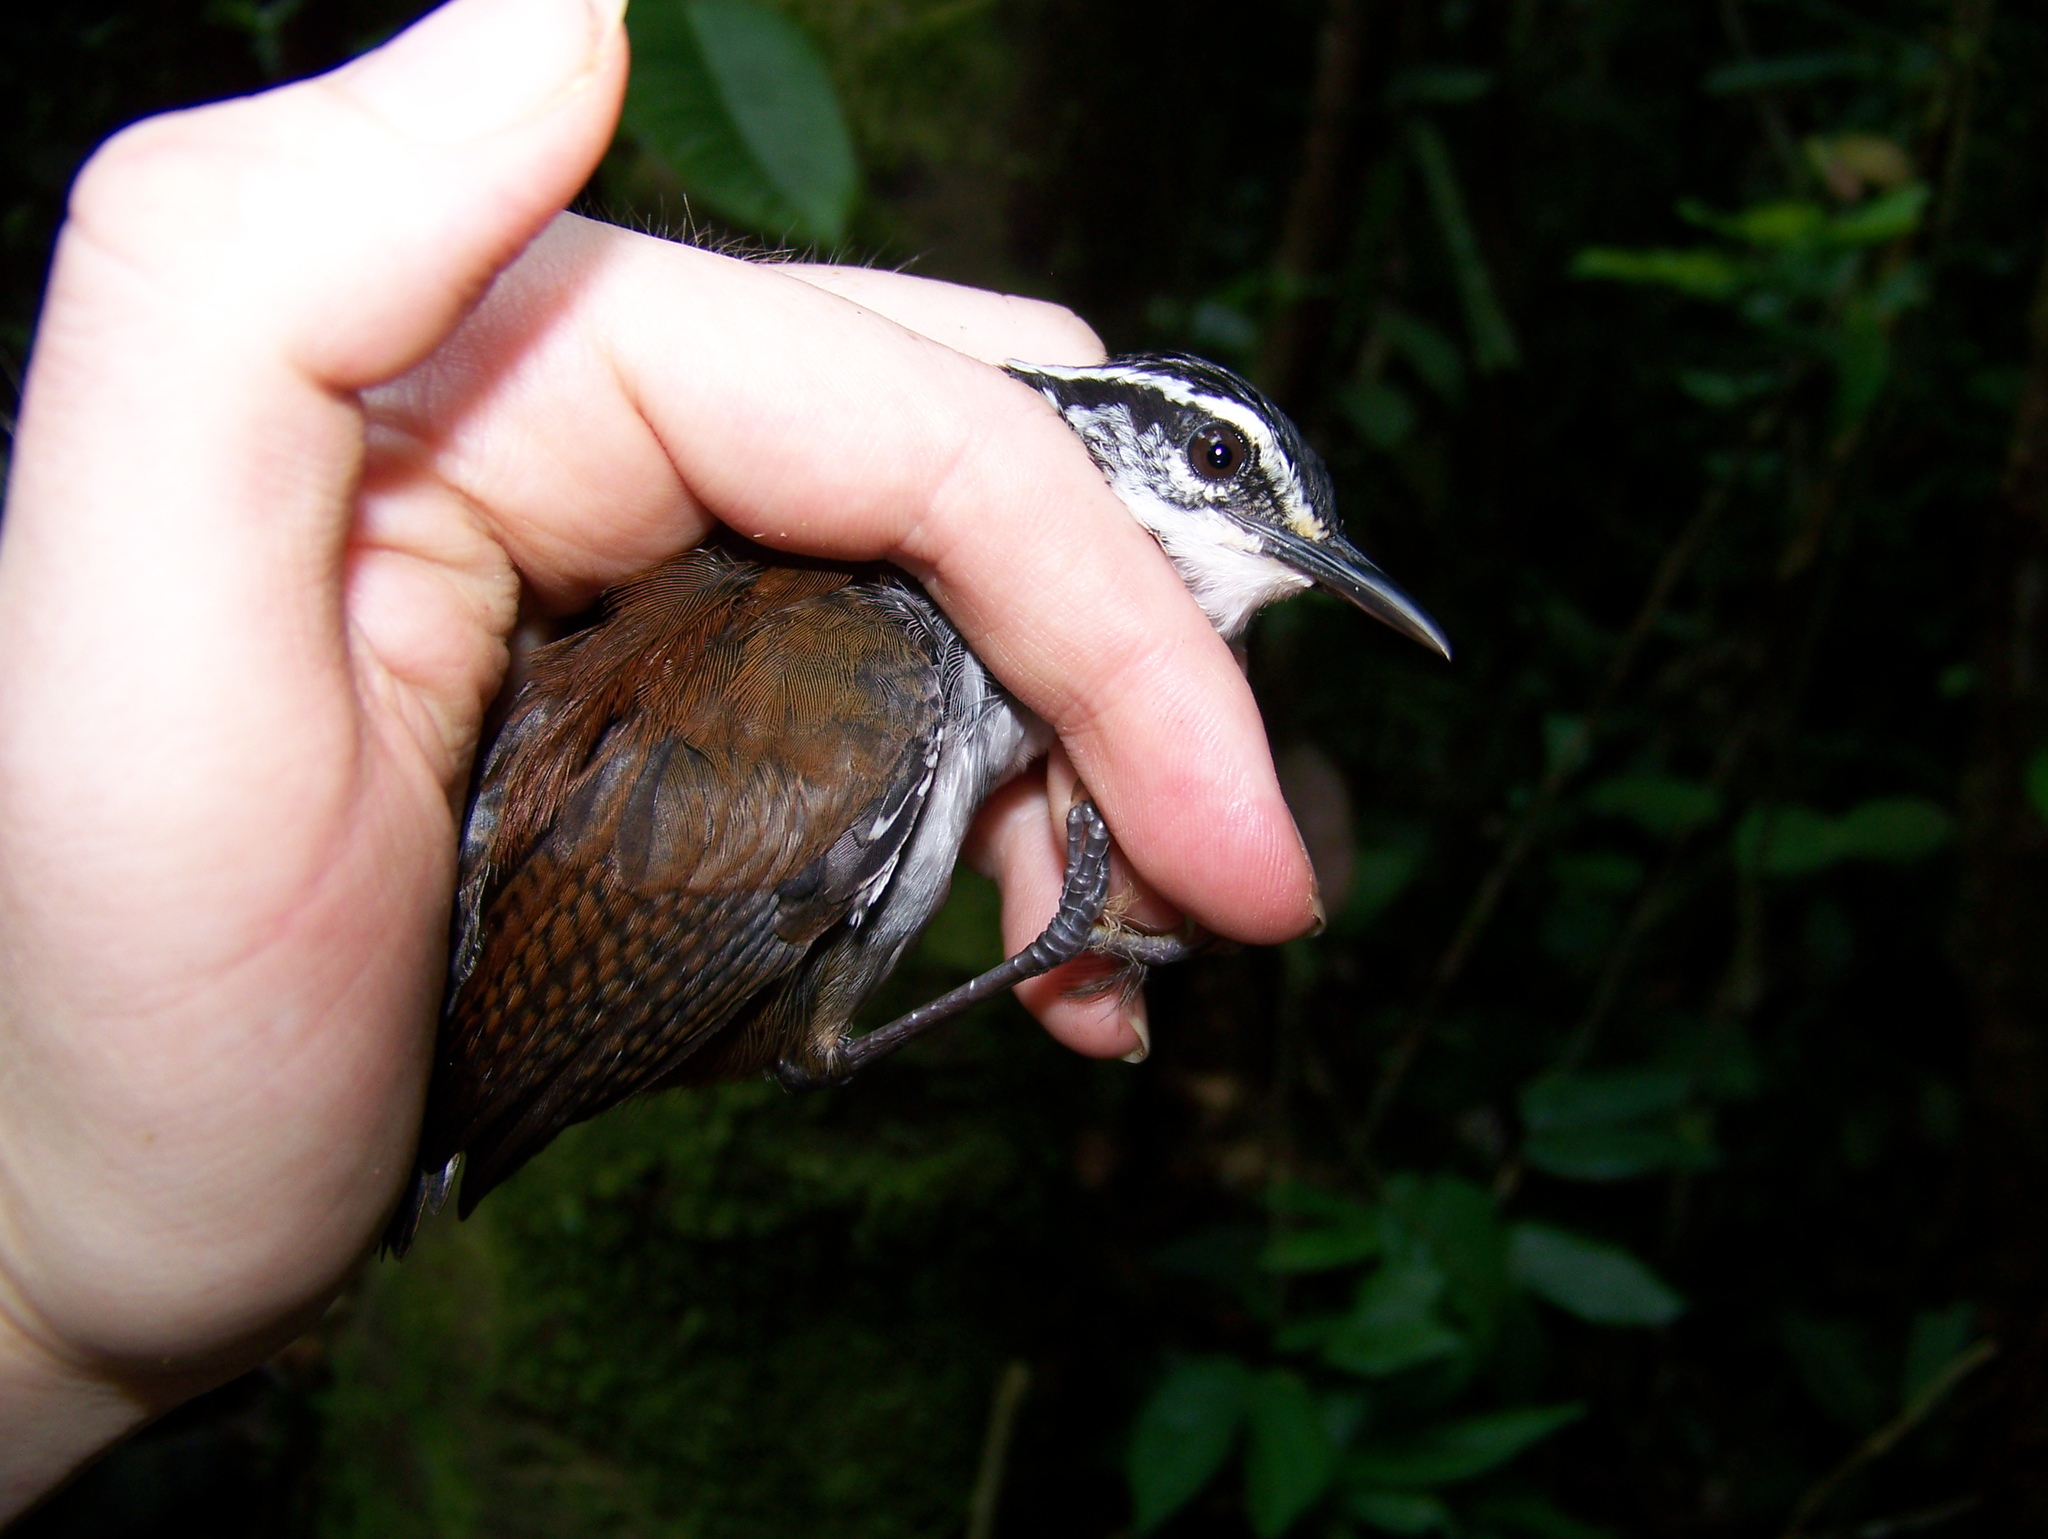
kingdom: Animalia
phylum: Chordata
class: Aves
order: Passeriformes
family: Troglodytidae
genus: Henicorhina
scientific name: Henicorhina leucosticta
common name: White-breasted wood-wren
